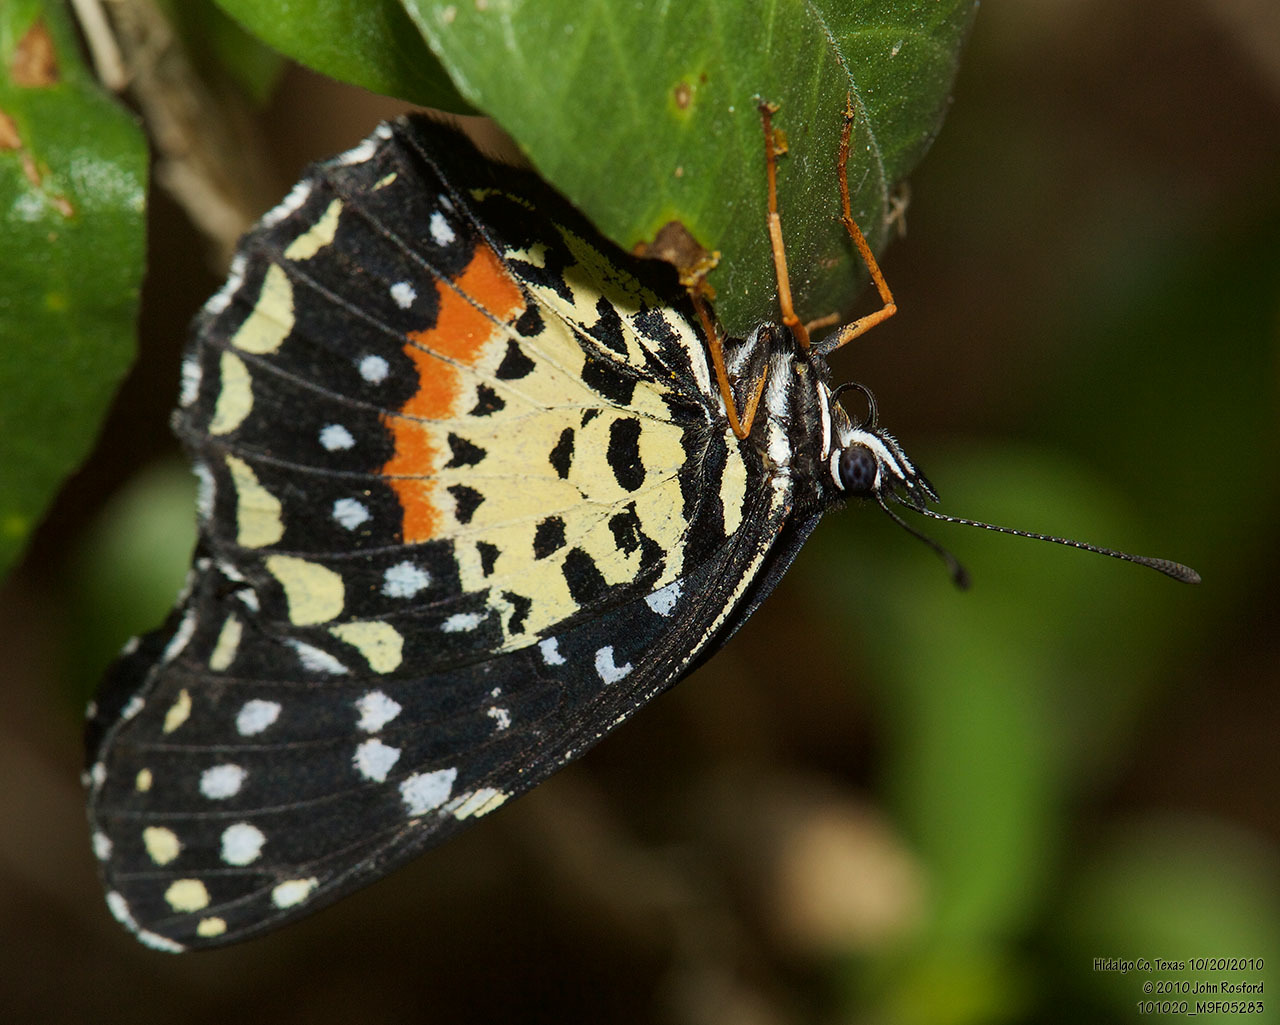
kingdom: Animalia
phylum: Arthropoda
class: Insecta
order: Lepidoptera
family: Nymphalidae
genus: Chlosyne
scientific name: Chlosyne janais
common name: Crimson patch
